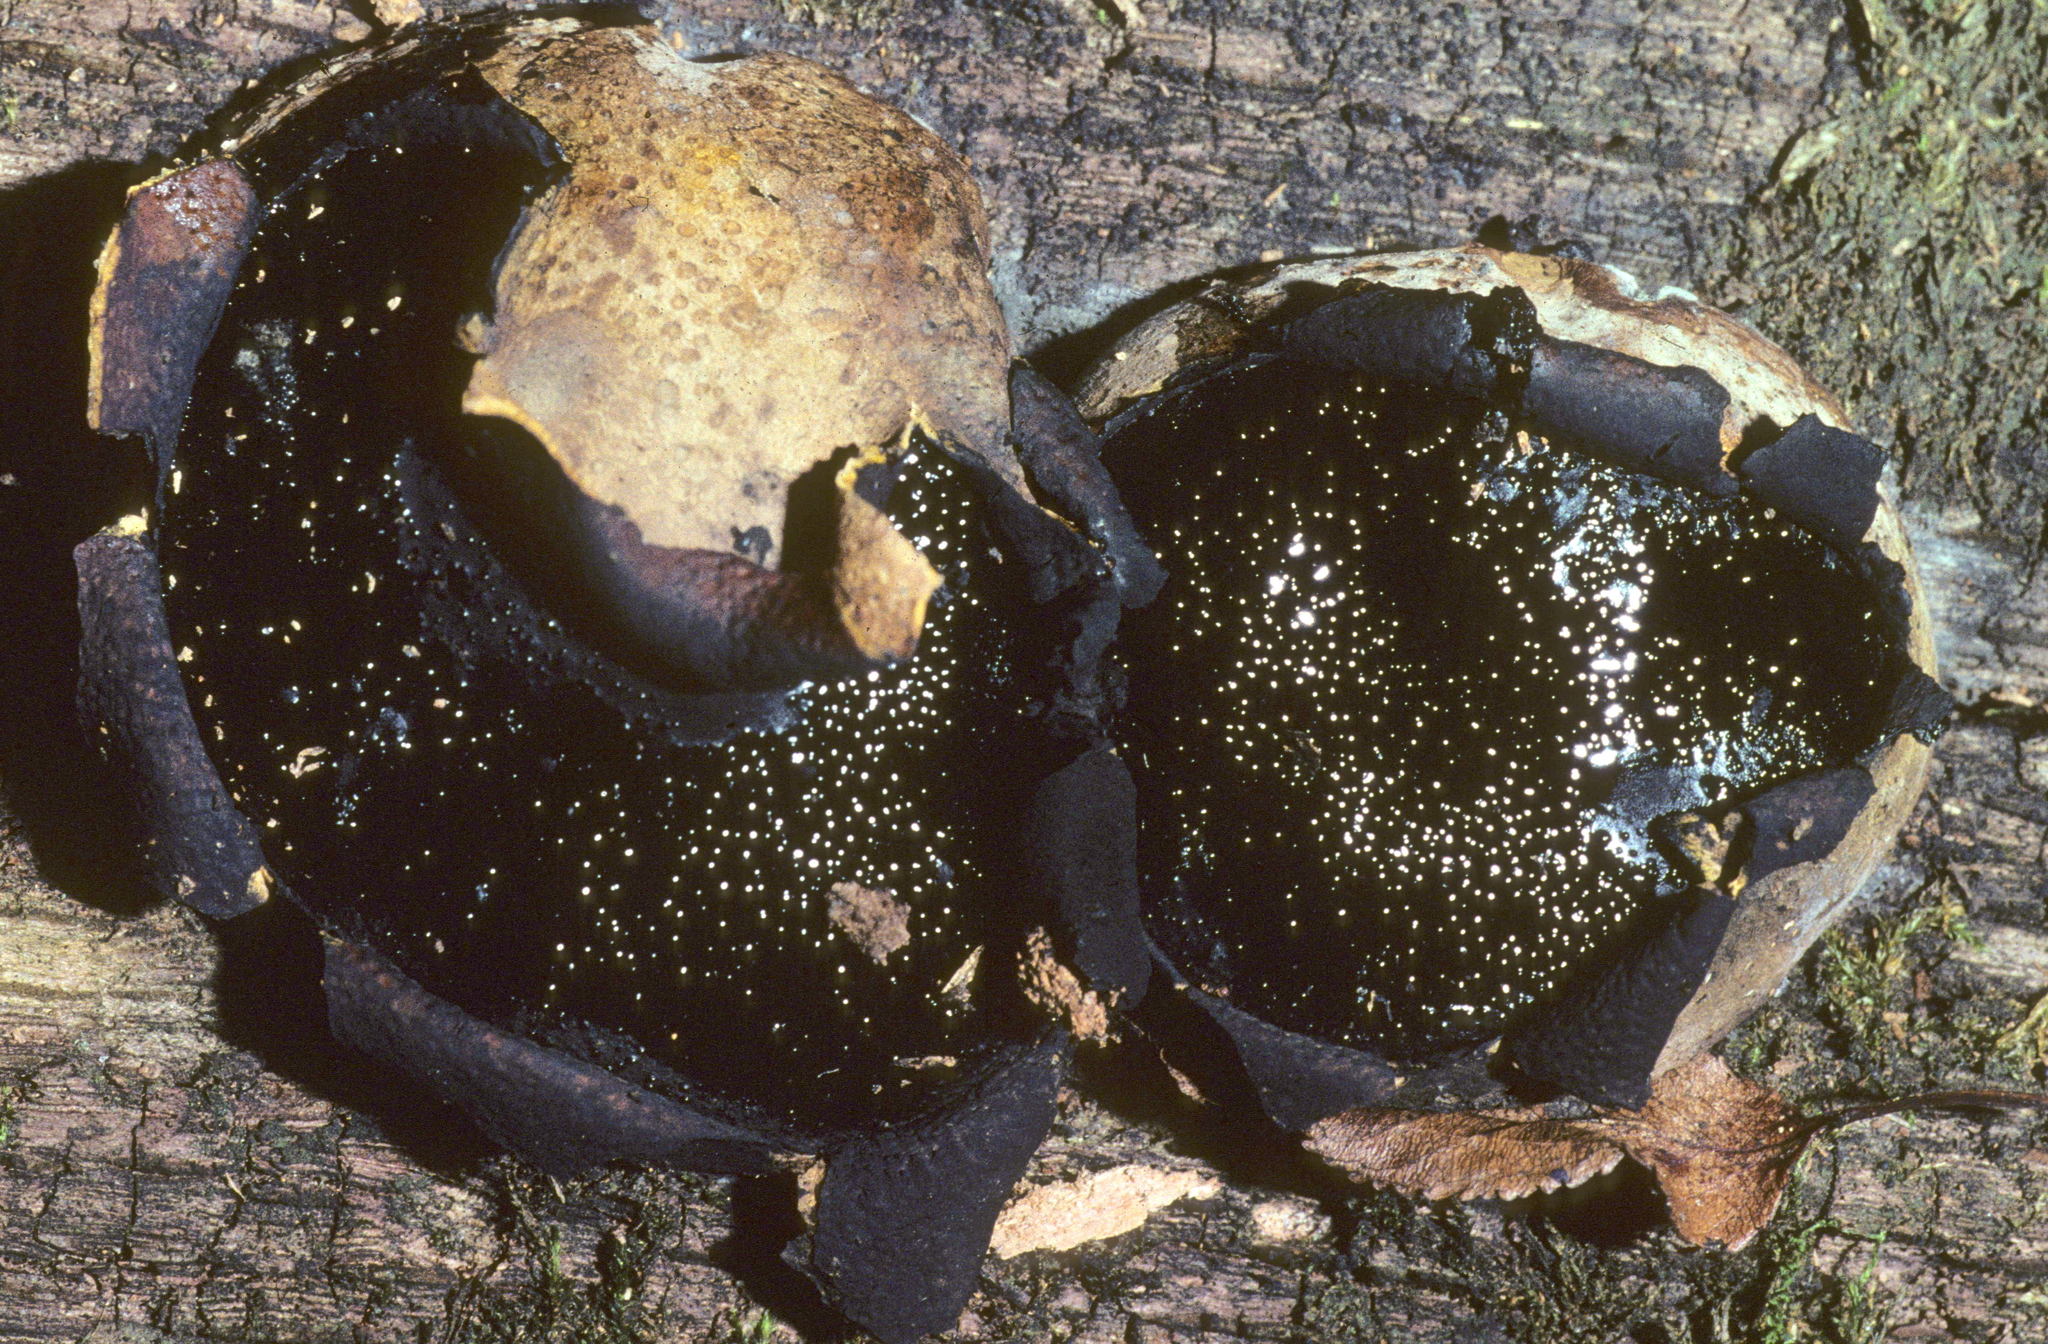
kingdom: Fungi
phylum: Ascomycota
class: Sordariomycetes
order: Boliniales
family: Boliniaceae
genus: Camarops
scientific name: Camarops petersii
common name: Dog's nose fungus
